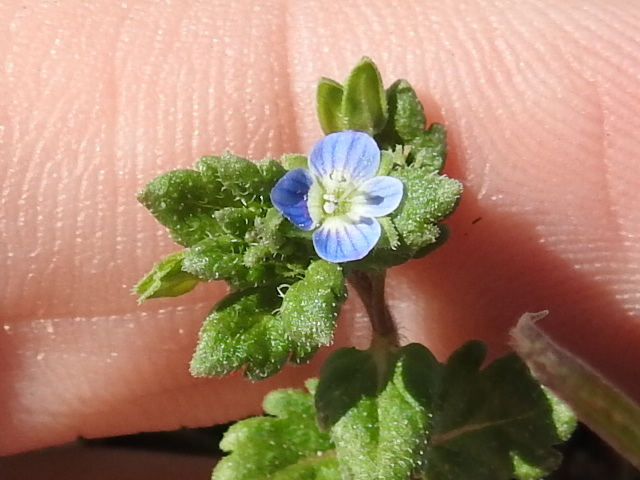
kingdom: Plantae
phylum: Tracheophyta
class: Magnoliopsida
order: Lamiales
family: Plantaginaceae
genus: Veronica
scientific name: Veronica polita
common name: Grey field-speedwell
